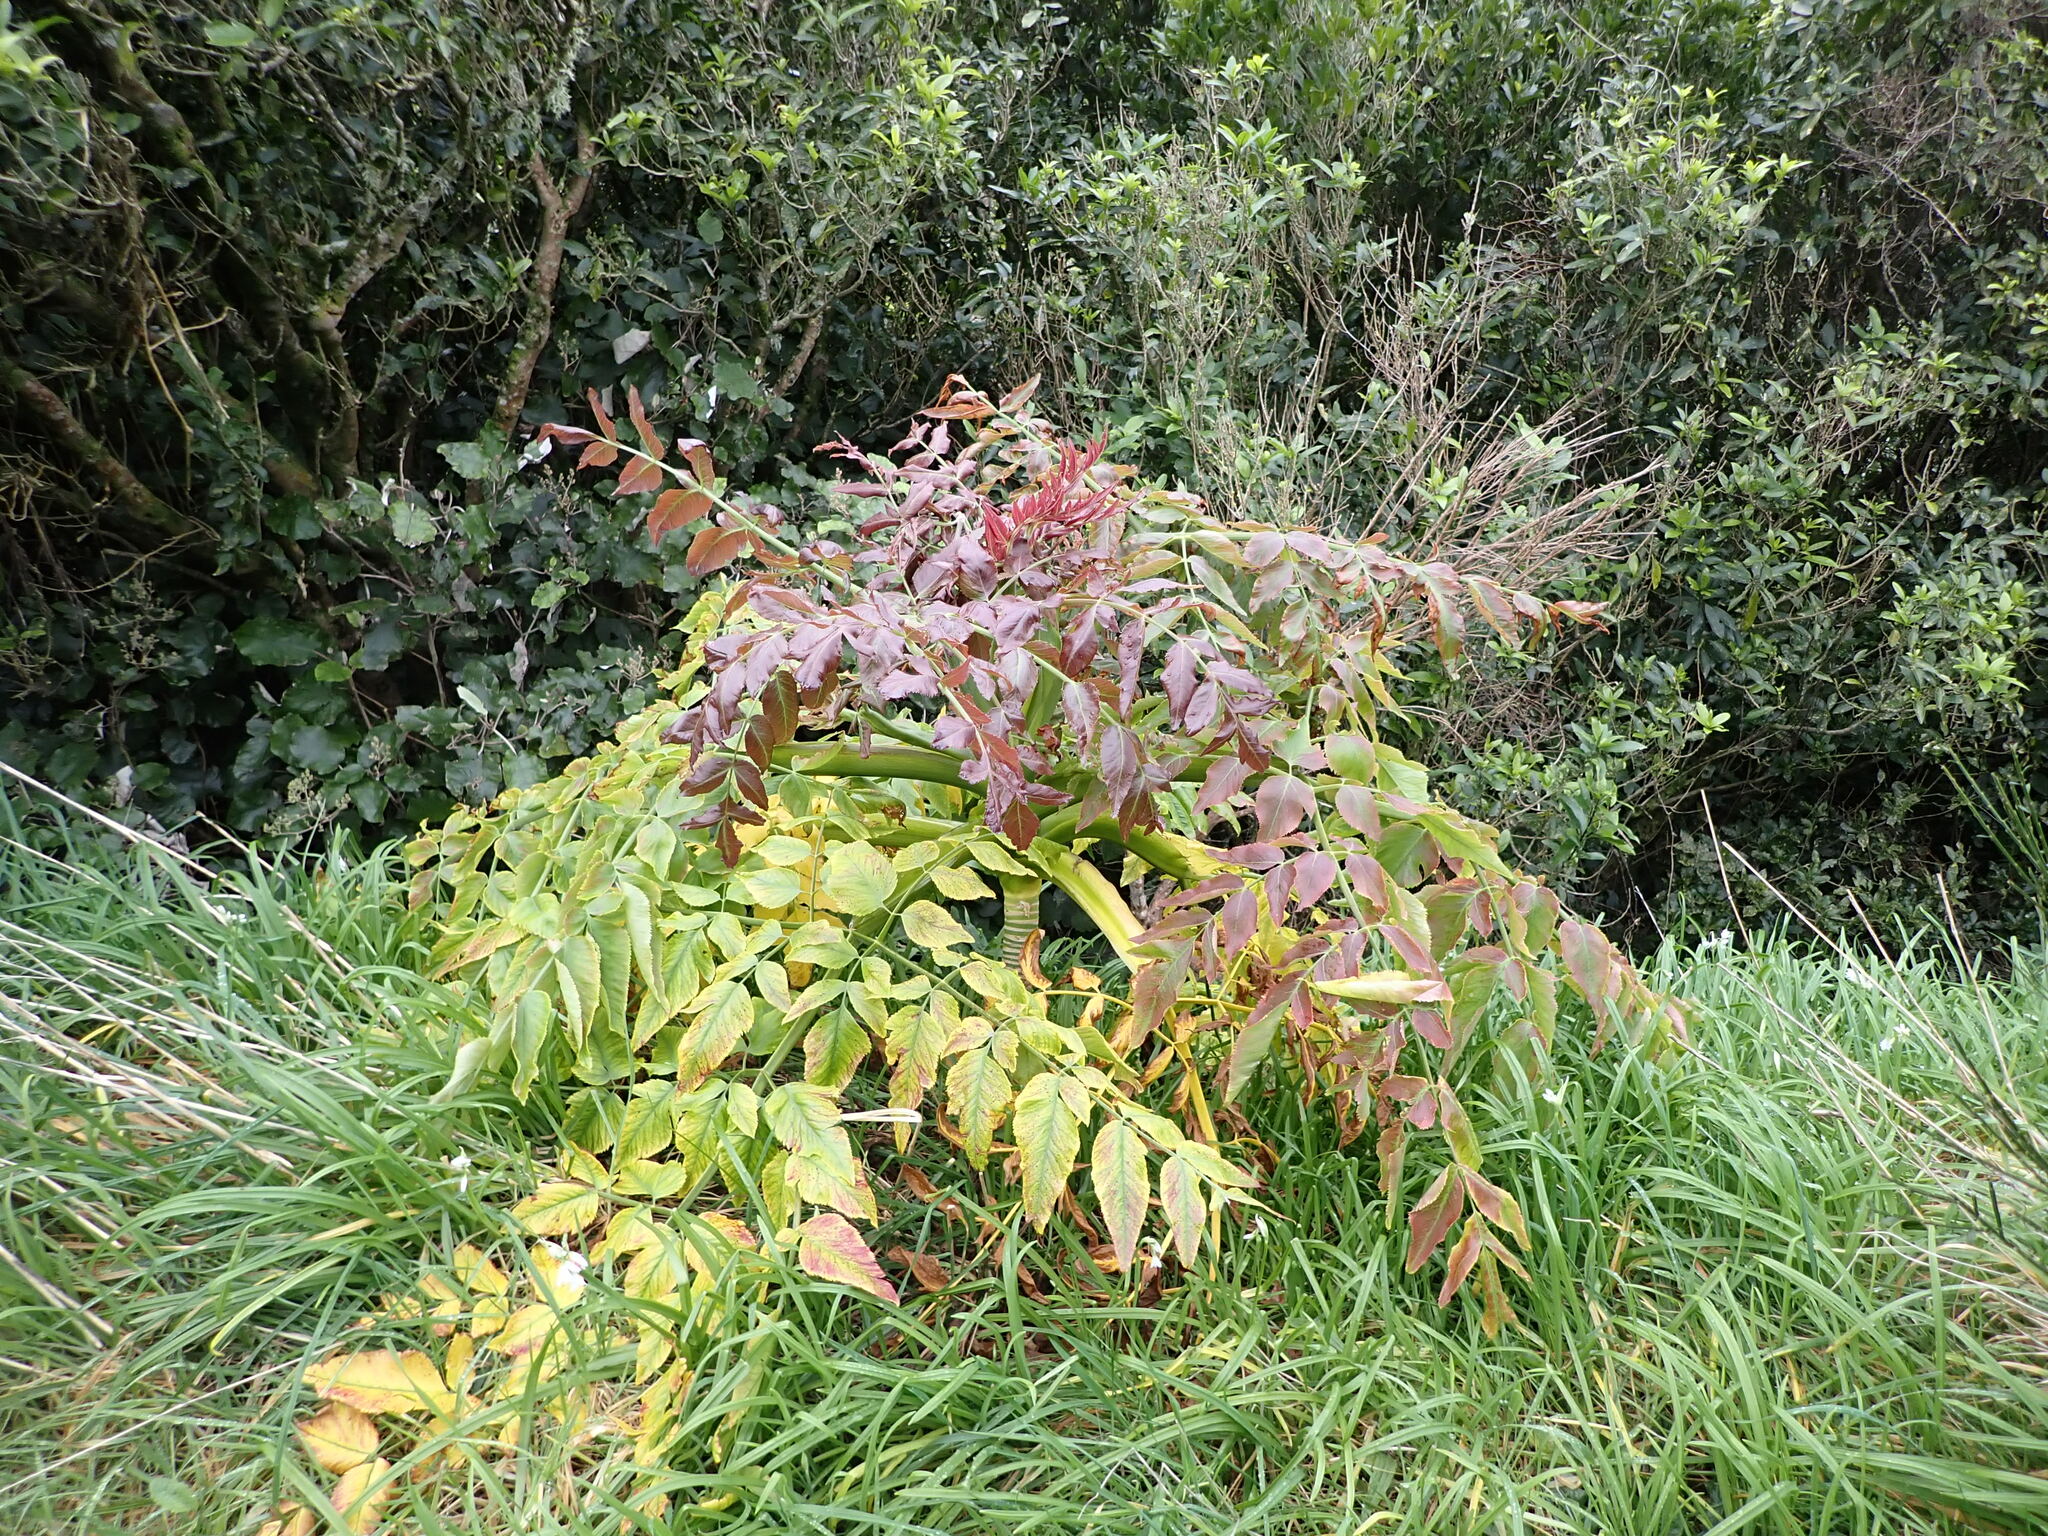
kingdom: Plantae
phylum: Tracheophyta
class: Magnoliopsida
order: Apiales
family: Apiaceae
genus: Daucus
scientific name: Daucus decipiens
